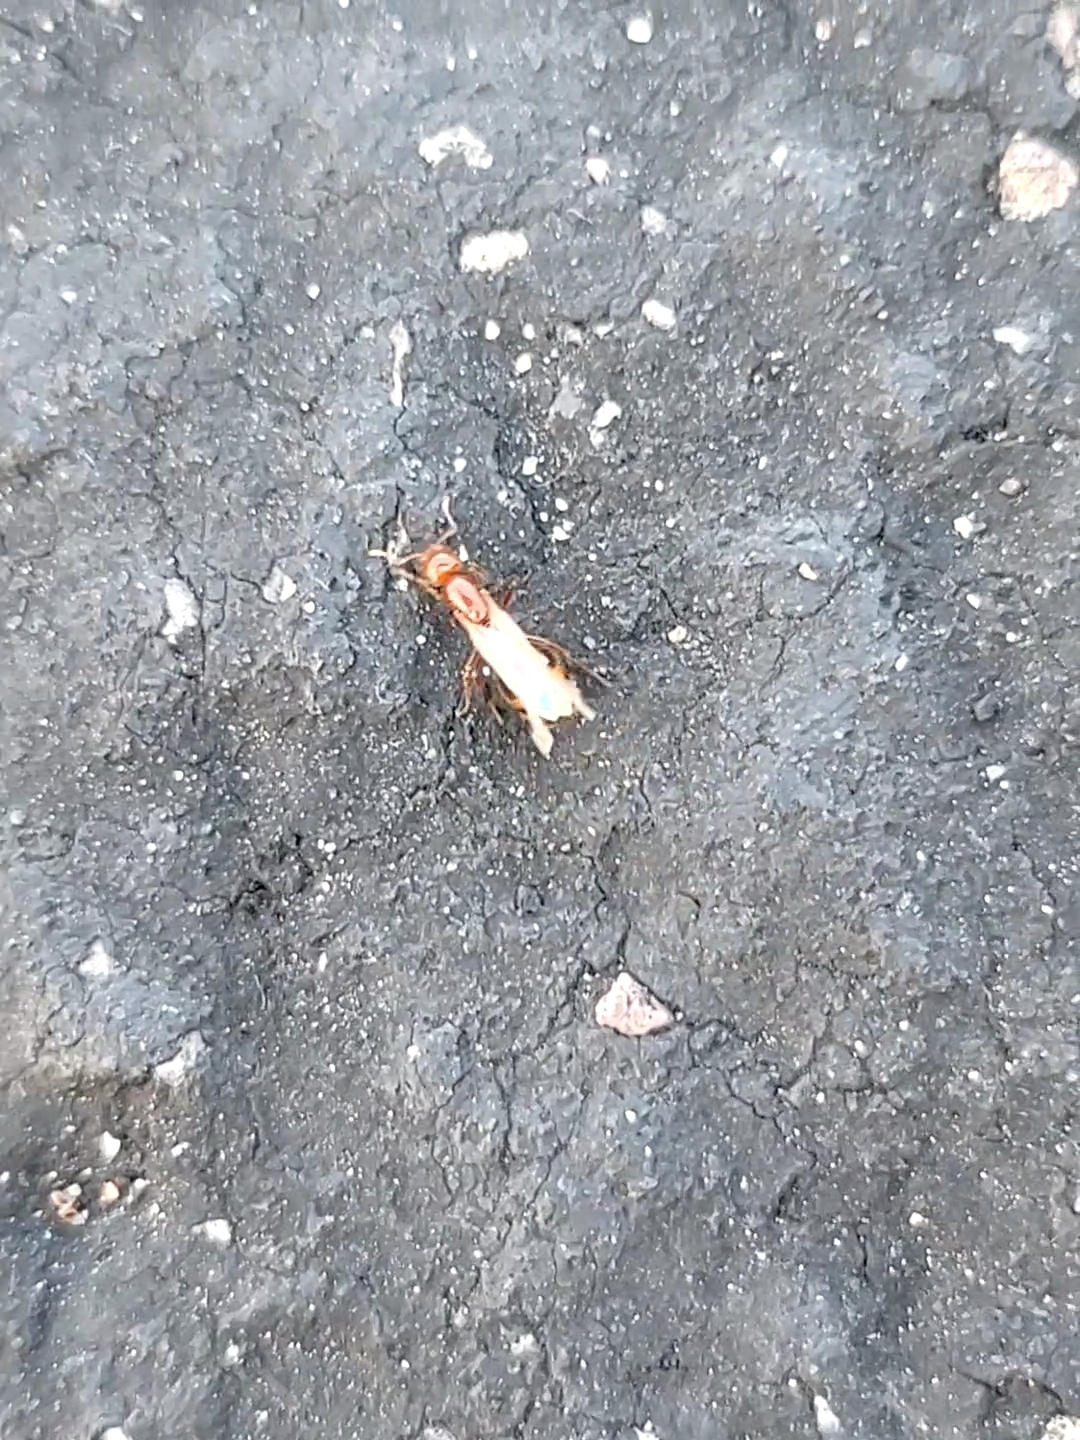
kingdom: Animalia
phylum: Arthropoda
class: Insecta
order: Hymenoptera
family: Formicidae
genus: Solenopsis
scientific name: Solenopsis xyloni
